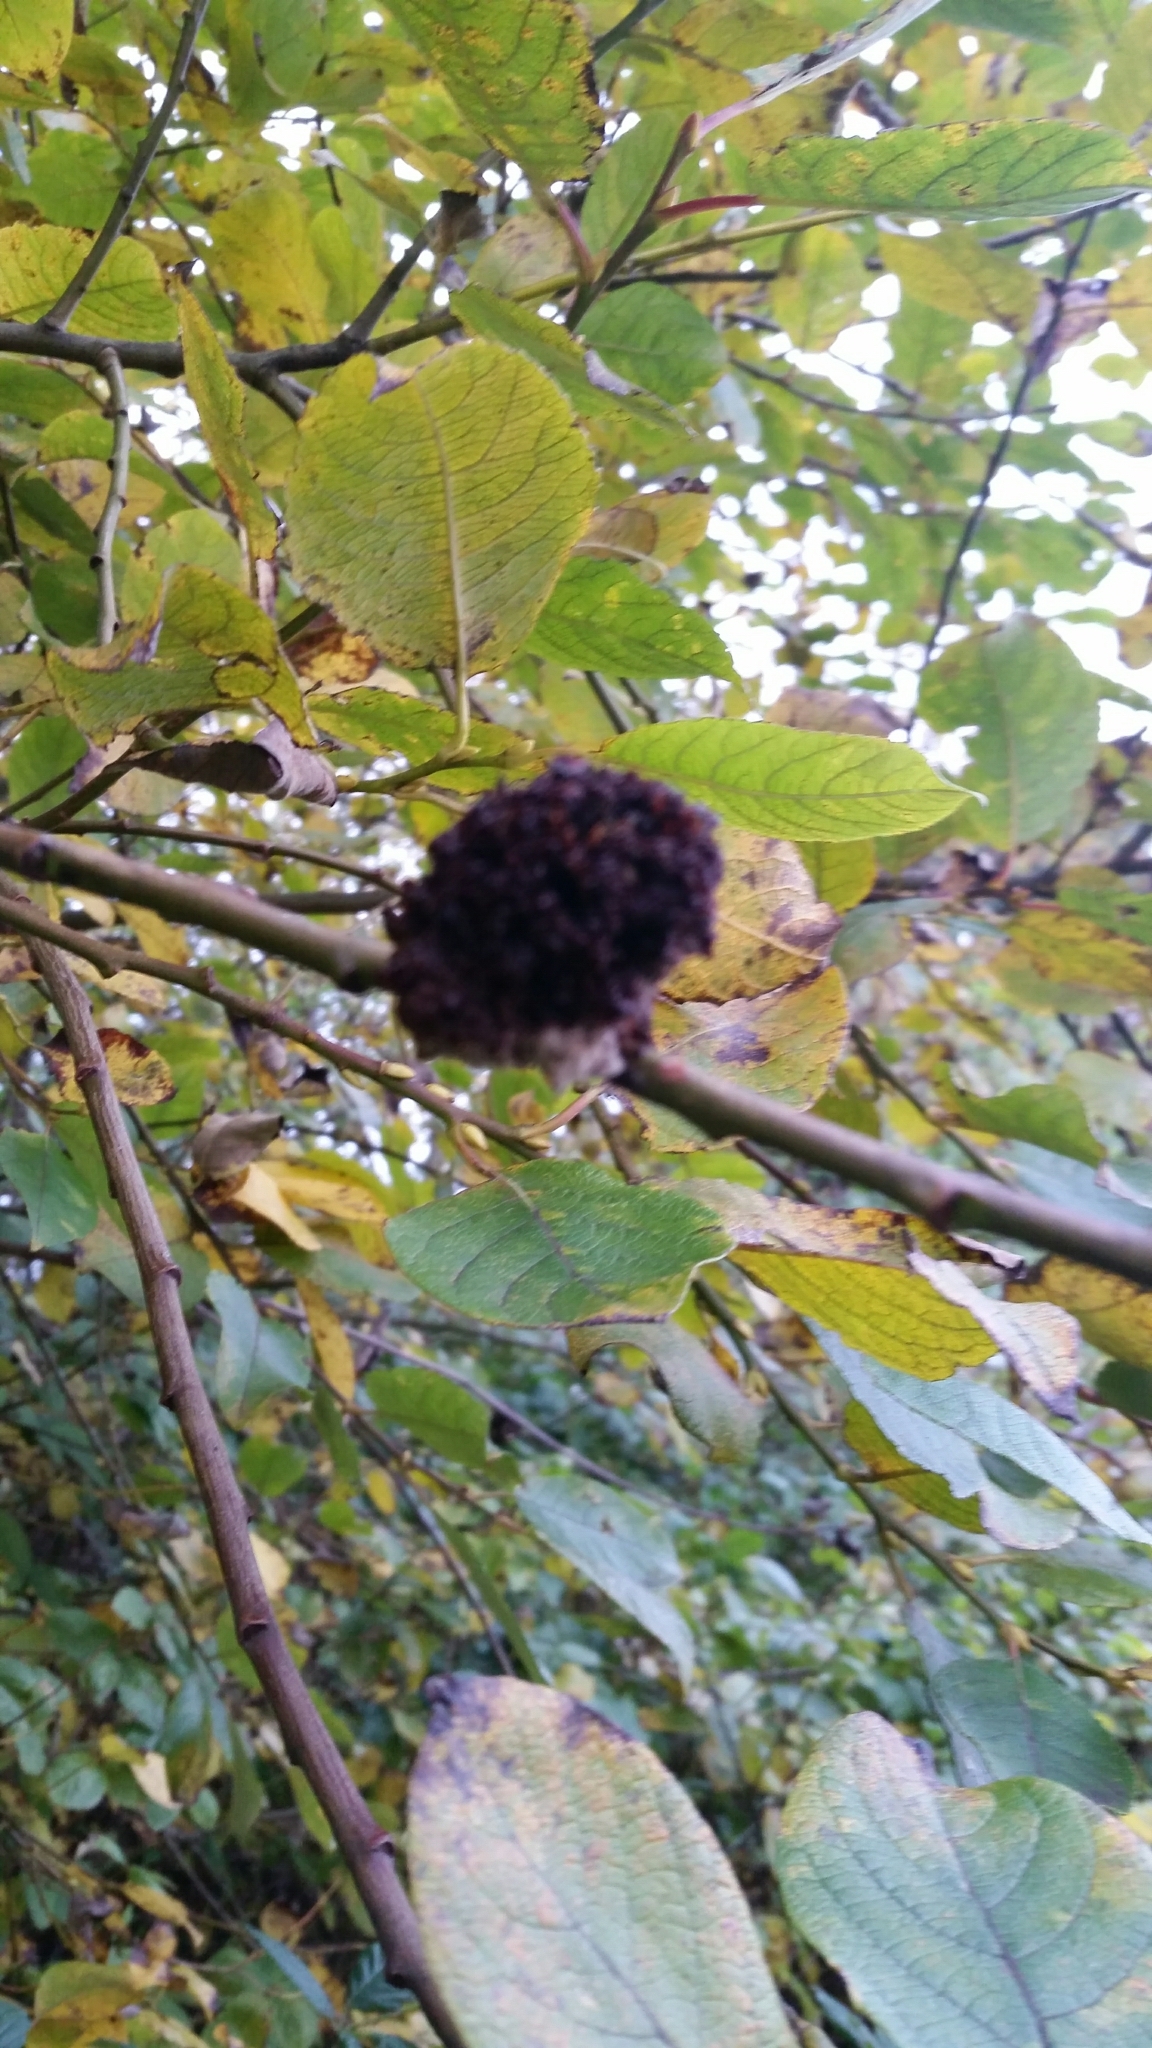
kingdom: Animalia
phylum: Arthropoda
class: Arachnida
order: Trombidiformes
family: Eriophyidae
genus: Stenacis
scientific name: Stenacis triradiatus
